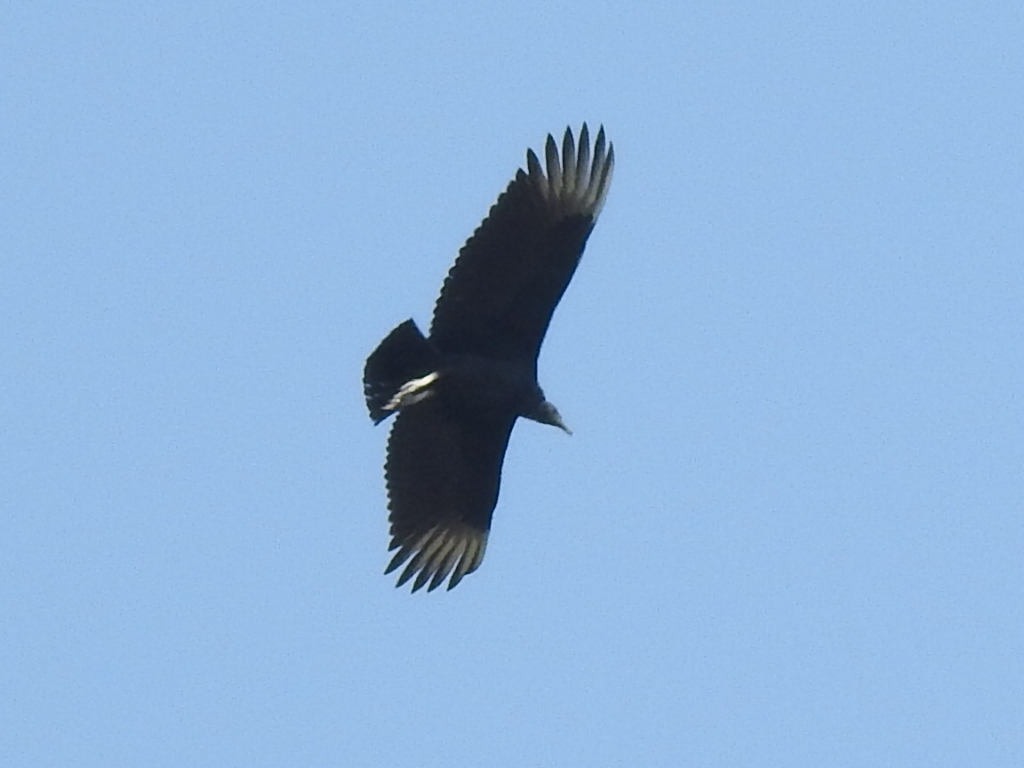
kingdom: Animalia
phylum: Chordata
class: Aves
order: Accipitriformes
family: Cathartidae
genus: Coragyps
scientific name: Coragyps atratus
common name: Black vulture
